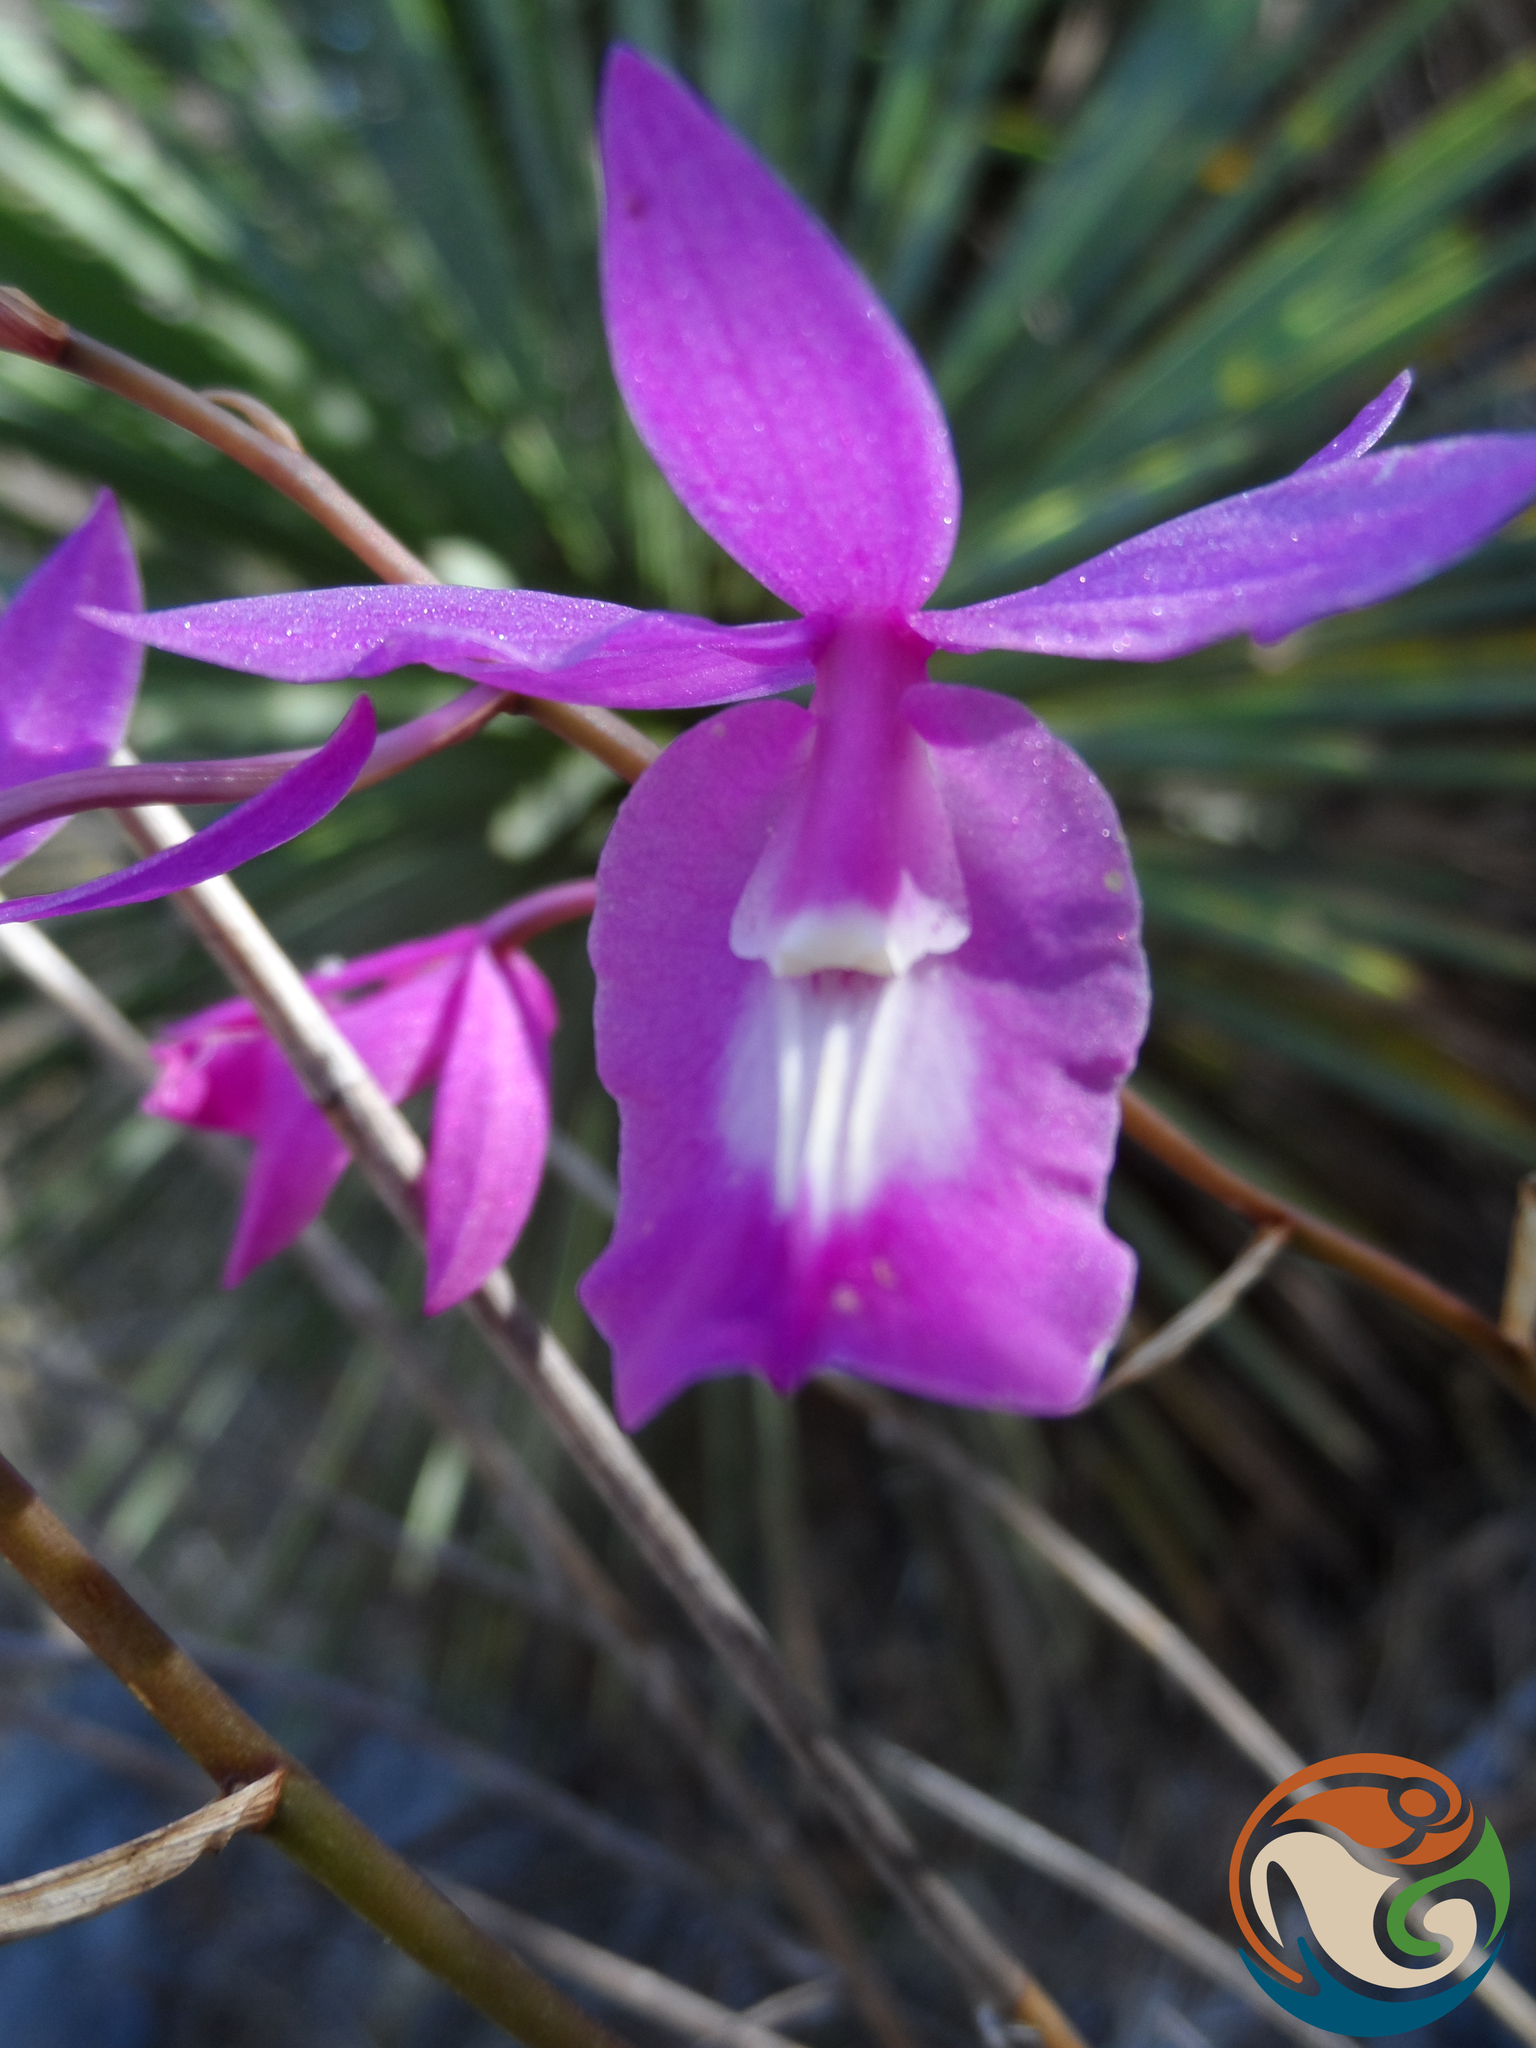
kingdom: Plantae
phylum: Tracheophyta
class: Liliopsida
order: Asparagales
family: Orchidaceae
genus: Barkeria
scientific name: Barkeria vanneriana
